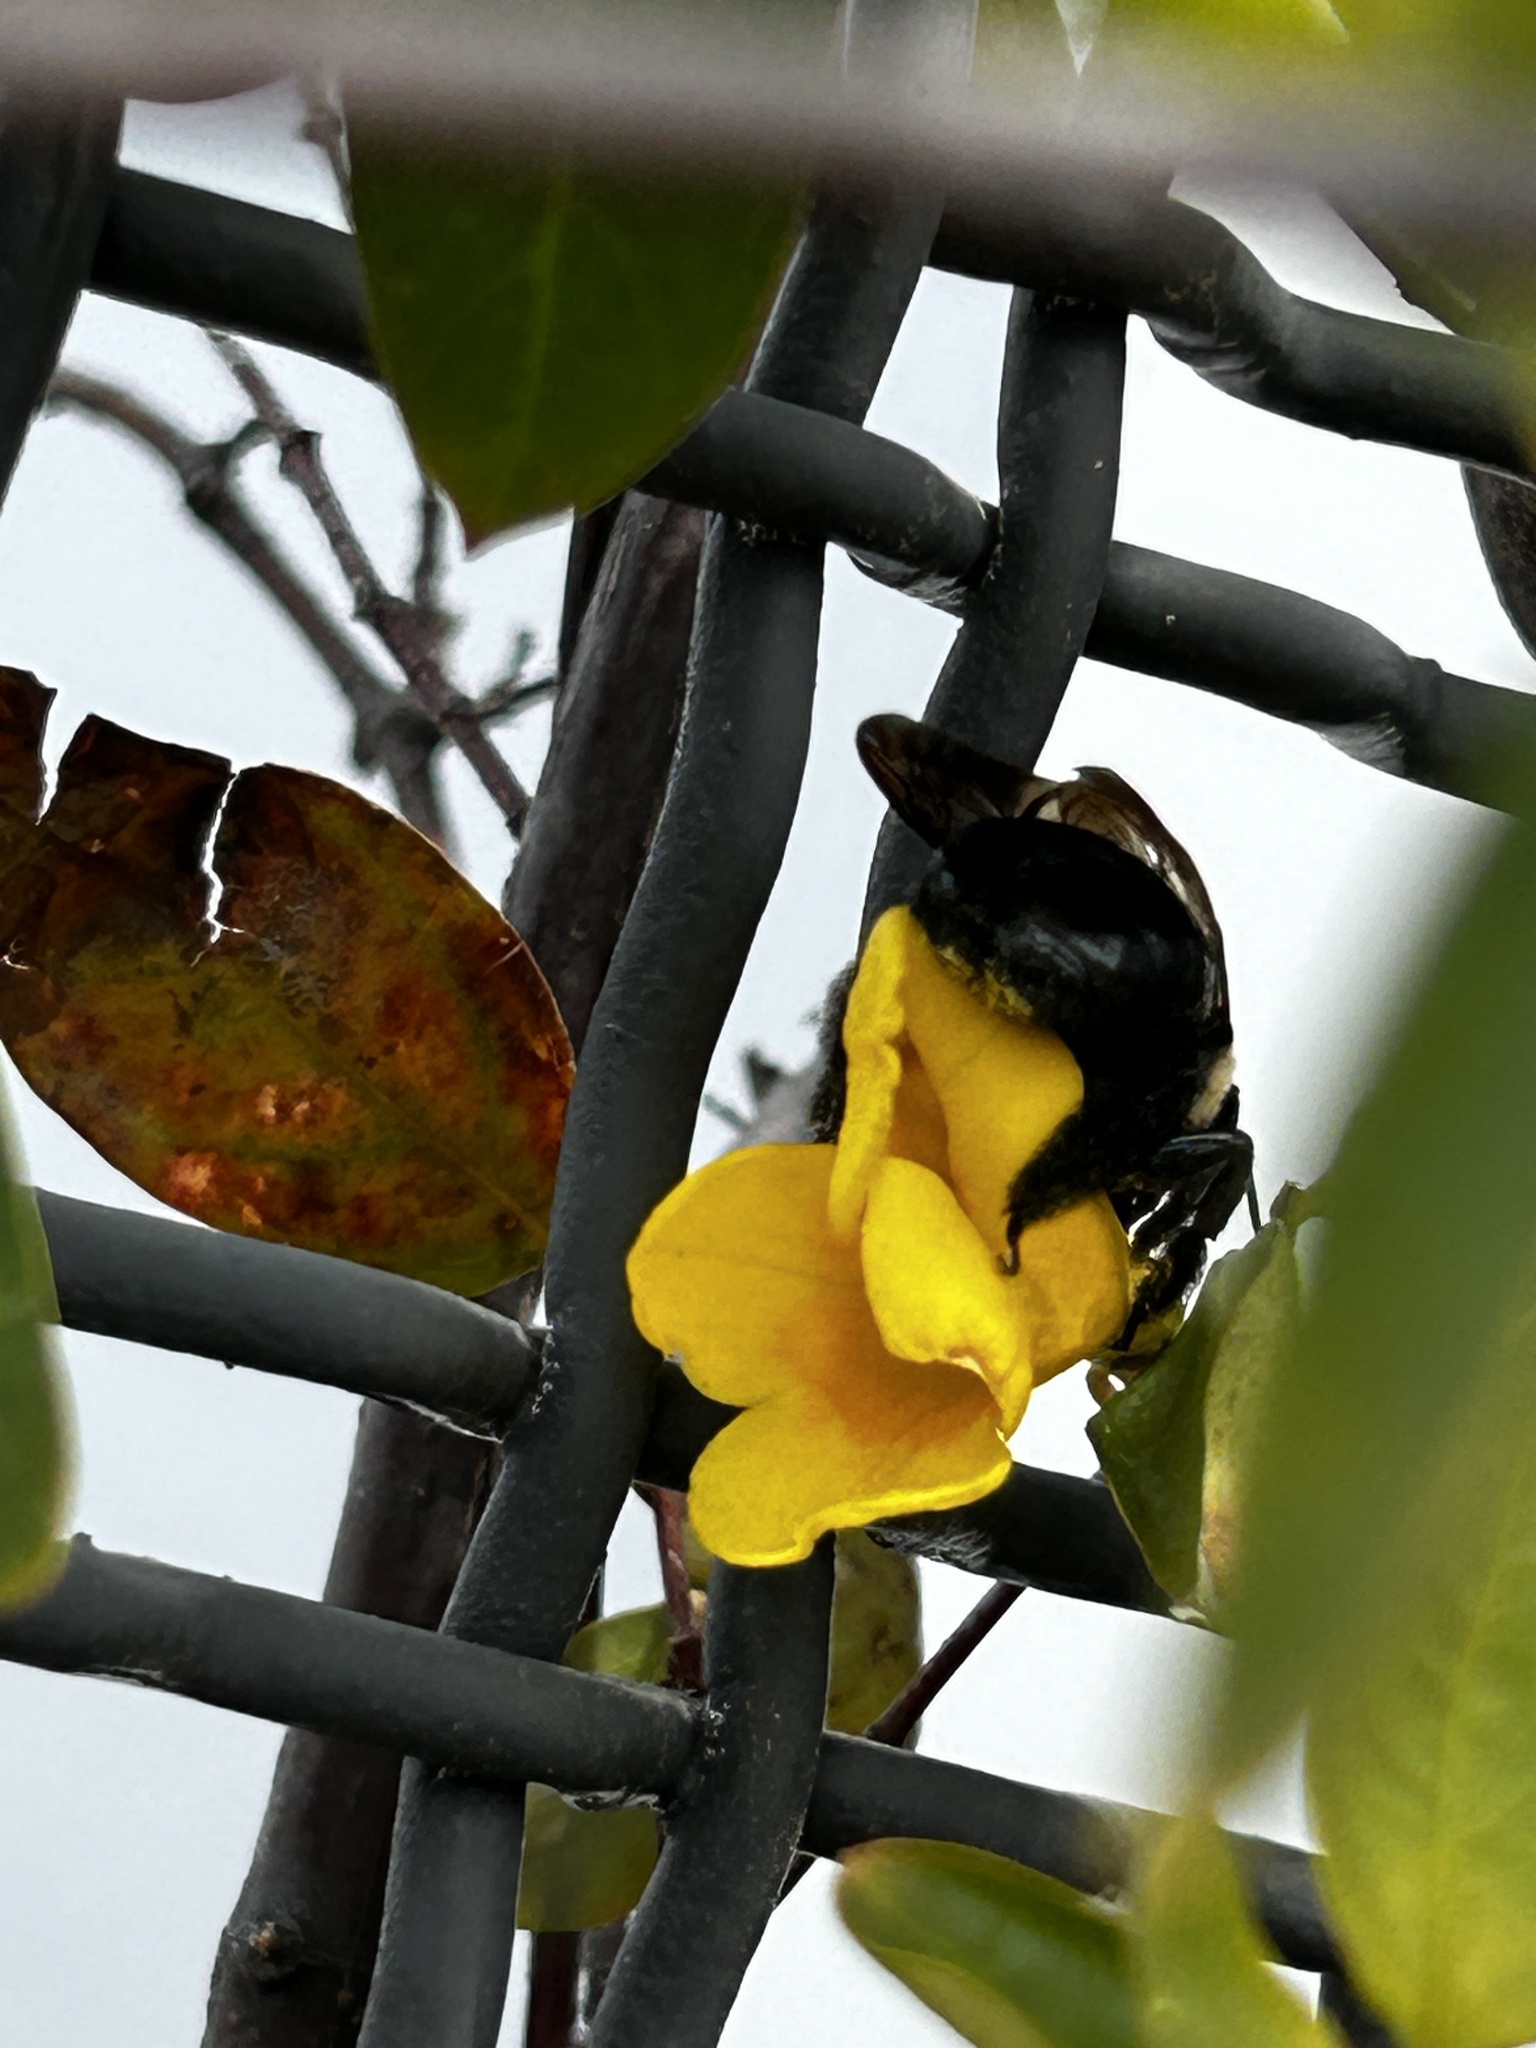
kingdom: Animalia
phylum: Arthropoda
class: Insecta
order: Hymenoptera
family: Apidae
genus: Xylocopa
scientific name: Xylocopa virginica
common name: Carpenter bee
